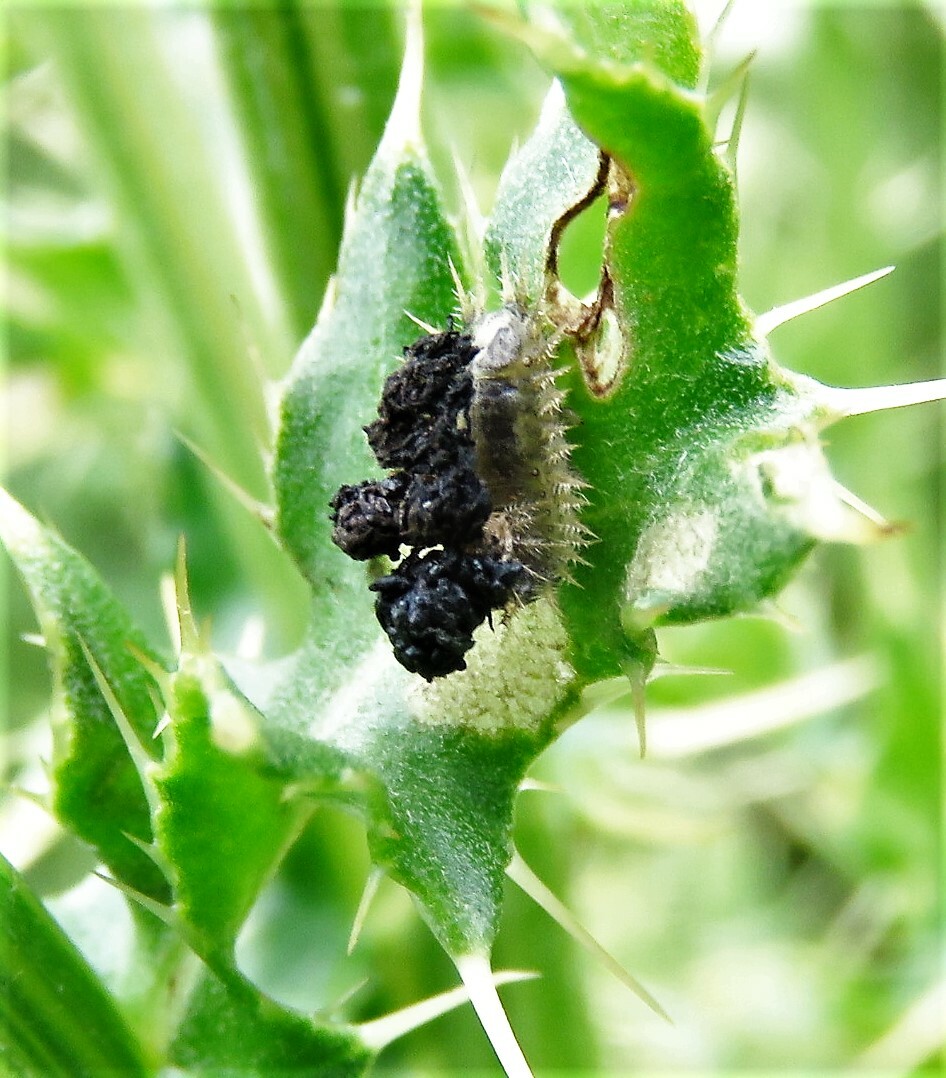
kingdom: Animalia
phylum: Arthropoda
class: Insecta
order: Coleoptera
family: Chrysomelidae
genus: Cassida
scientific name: Cassida rubiginosa
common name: Thistle tortoise beetle
